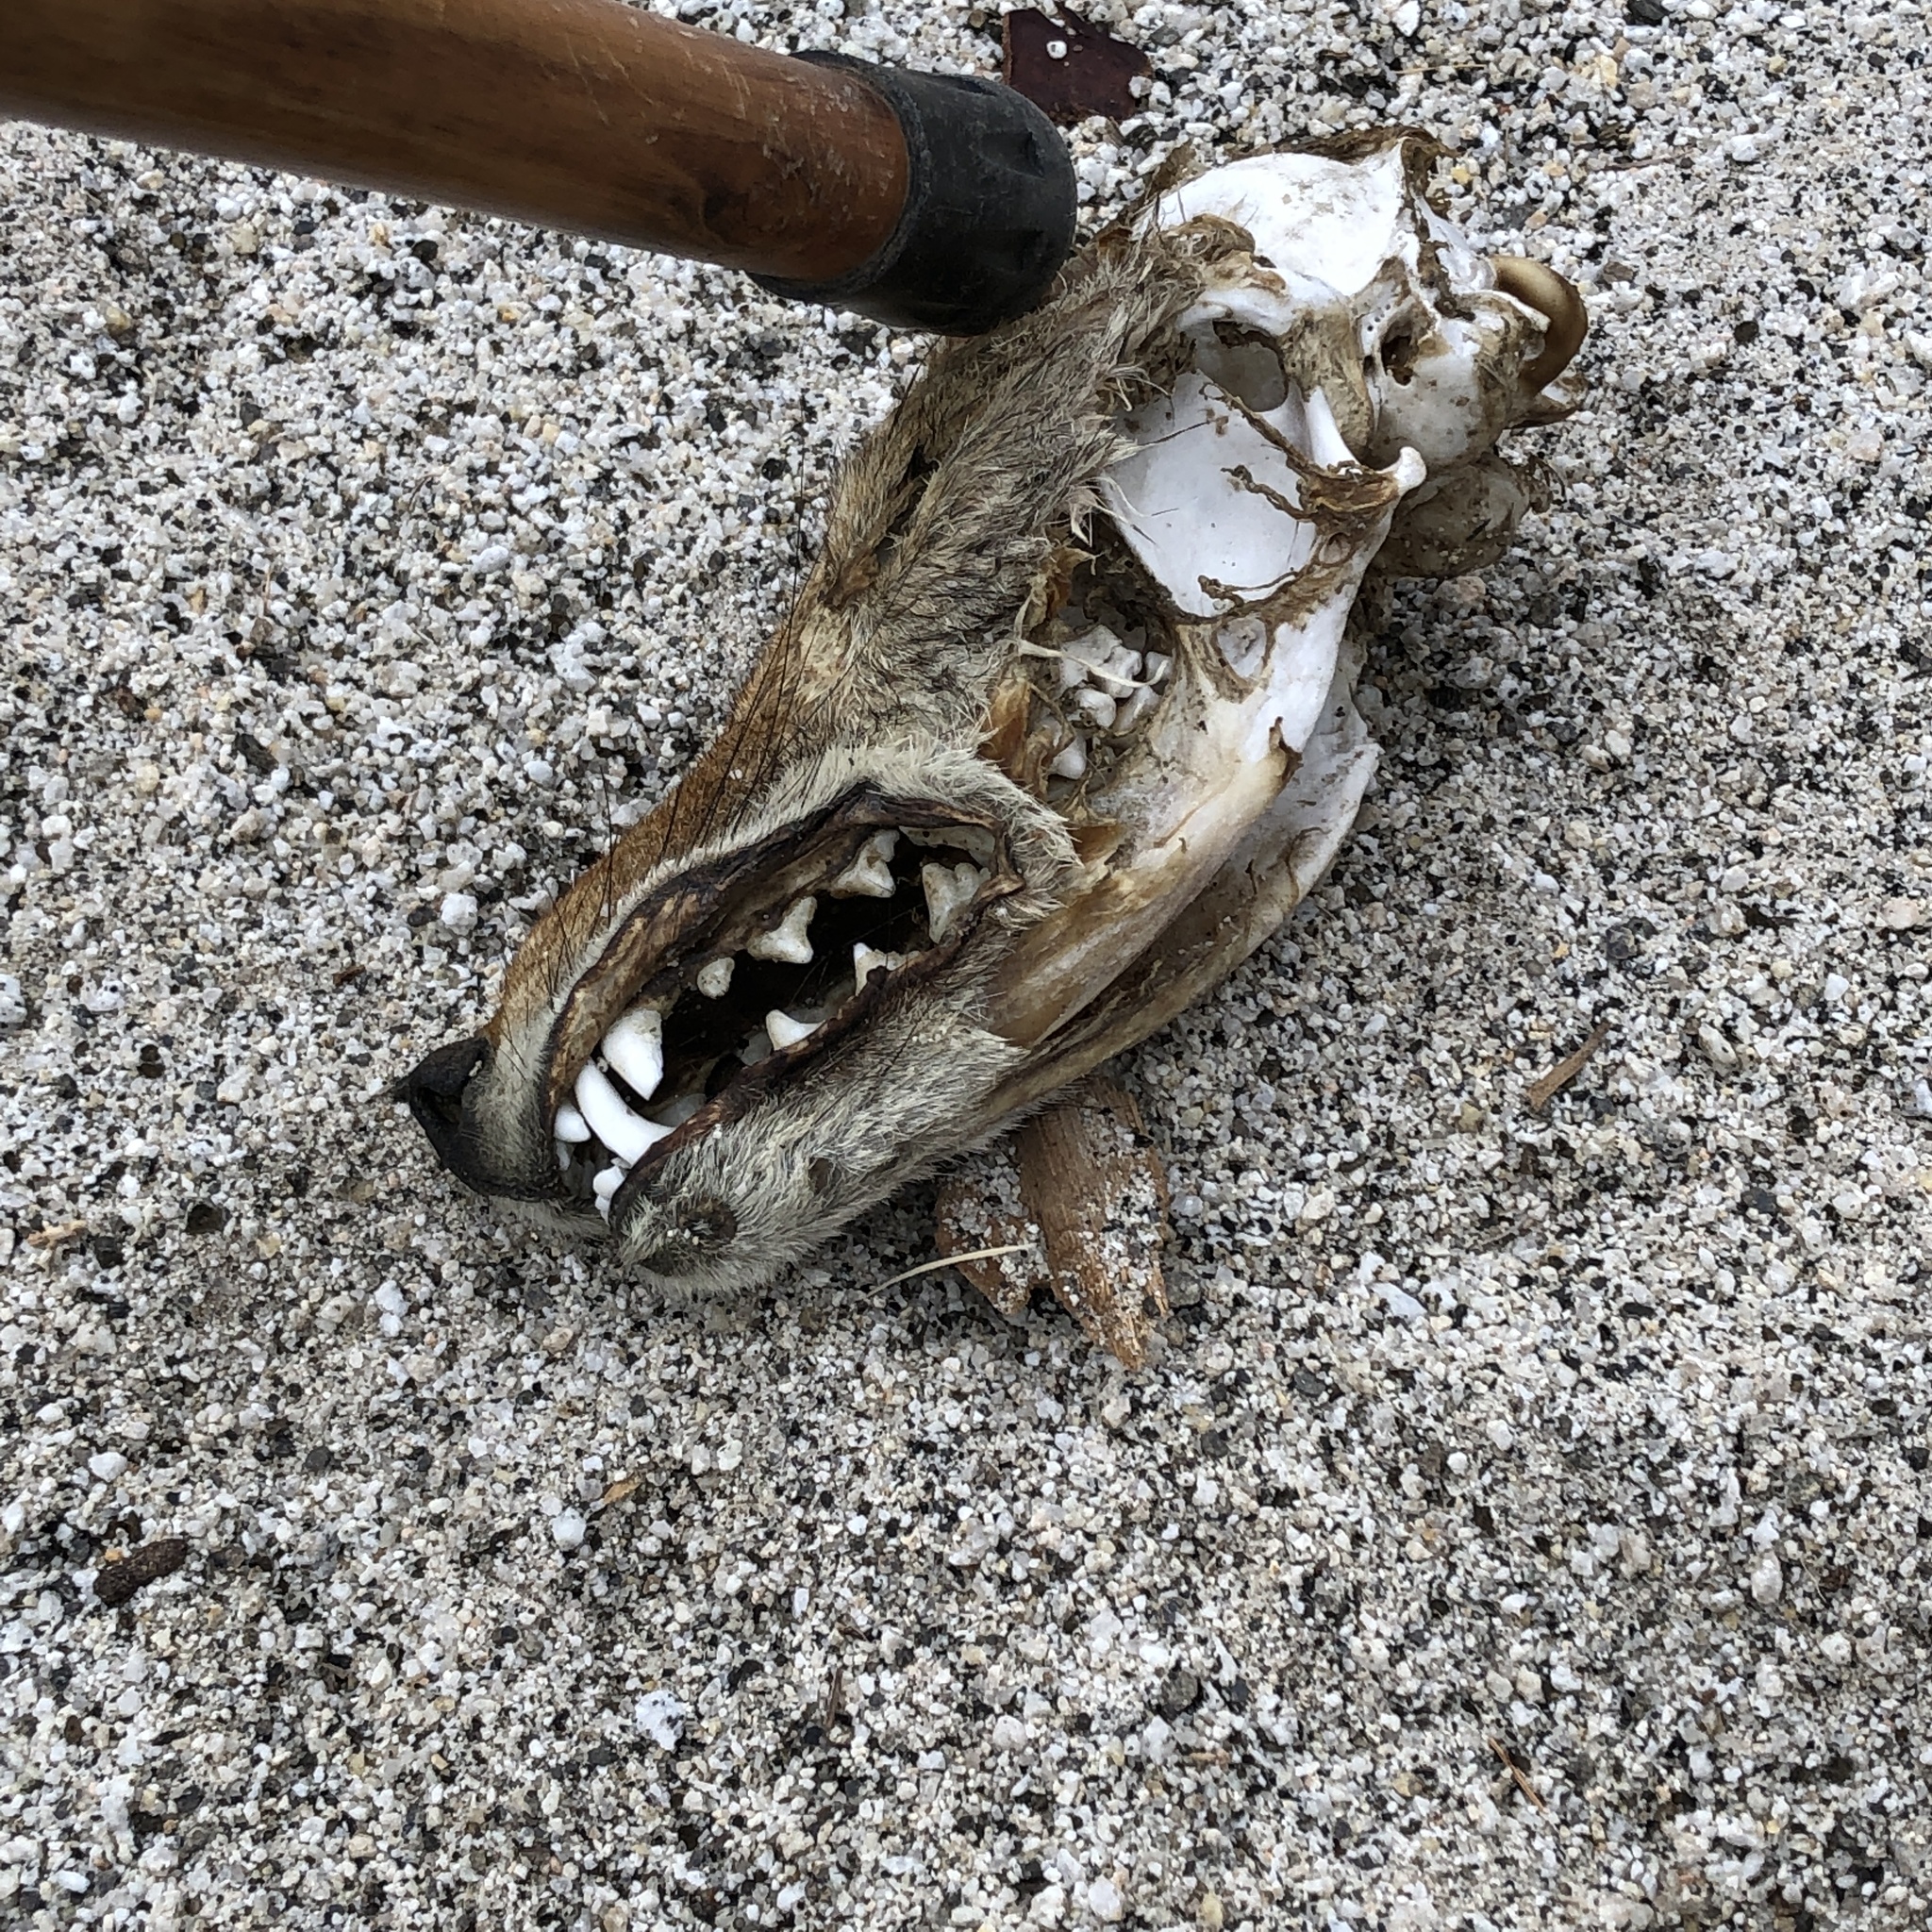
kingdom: Animalia
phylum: Chordata
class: Mammalia
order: Carnivora
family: Canidae
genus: Canis
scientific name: Canis latrans
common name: Coyote
